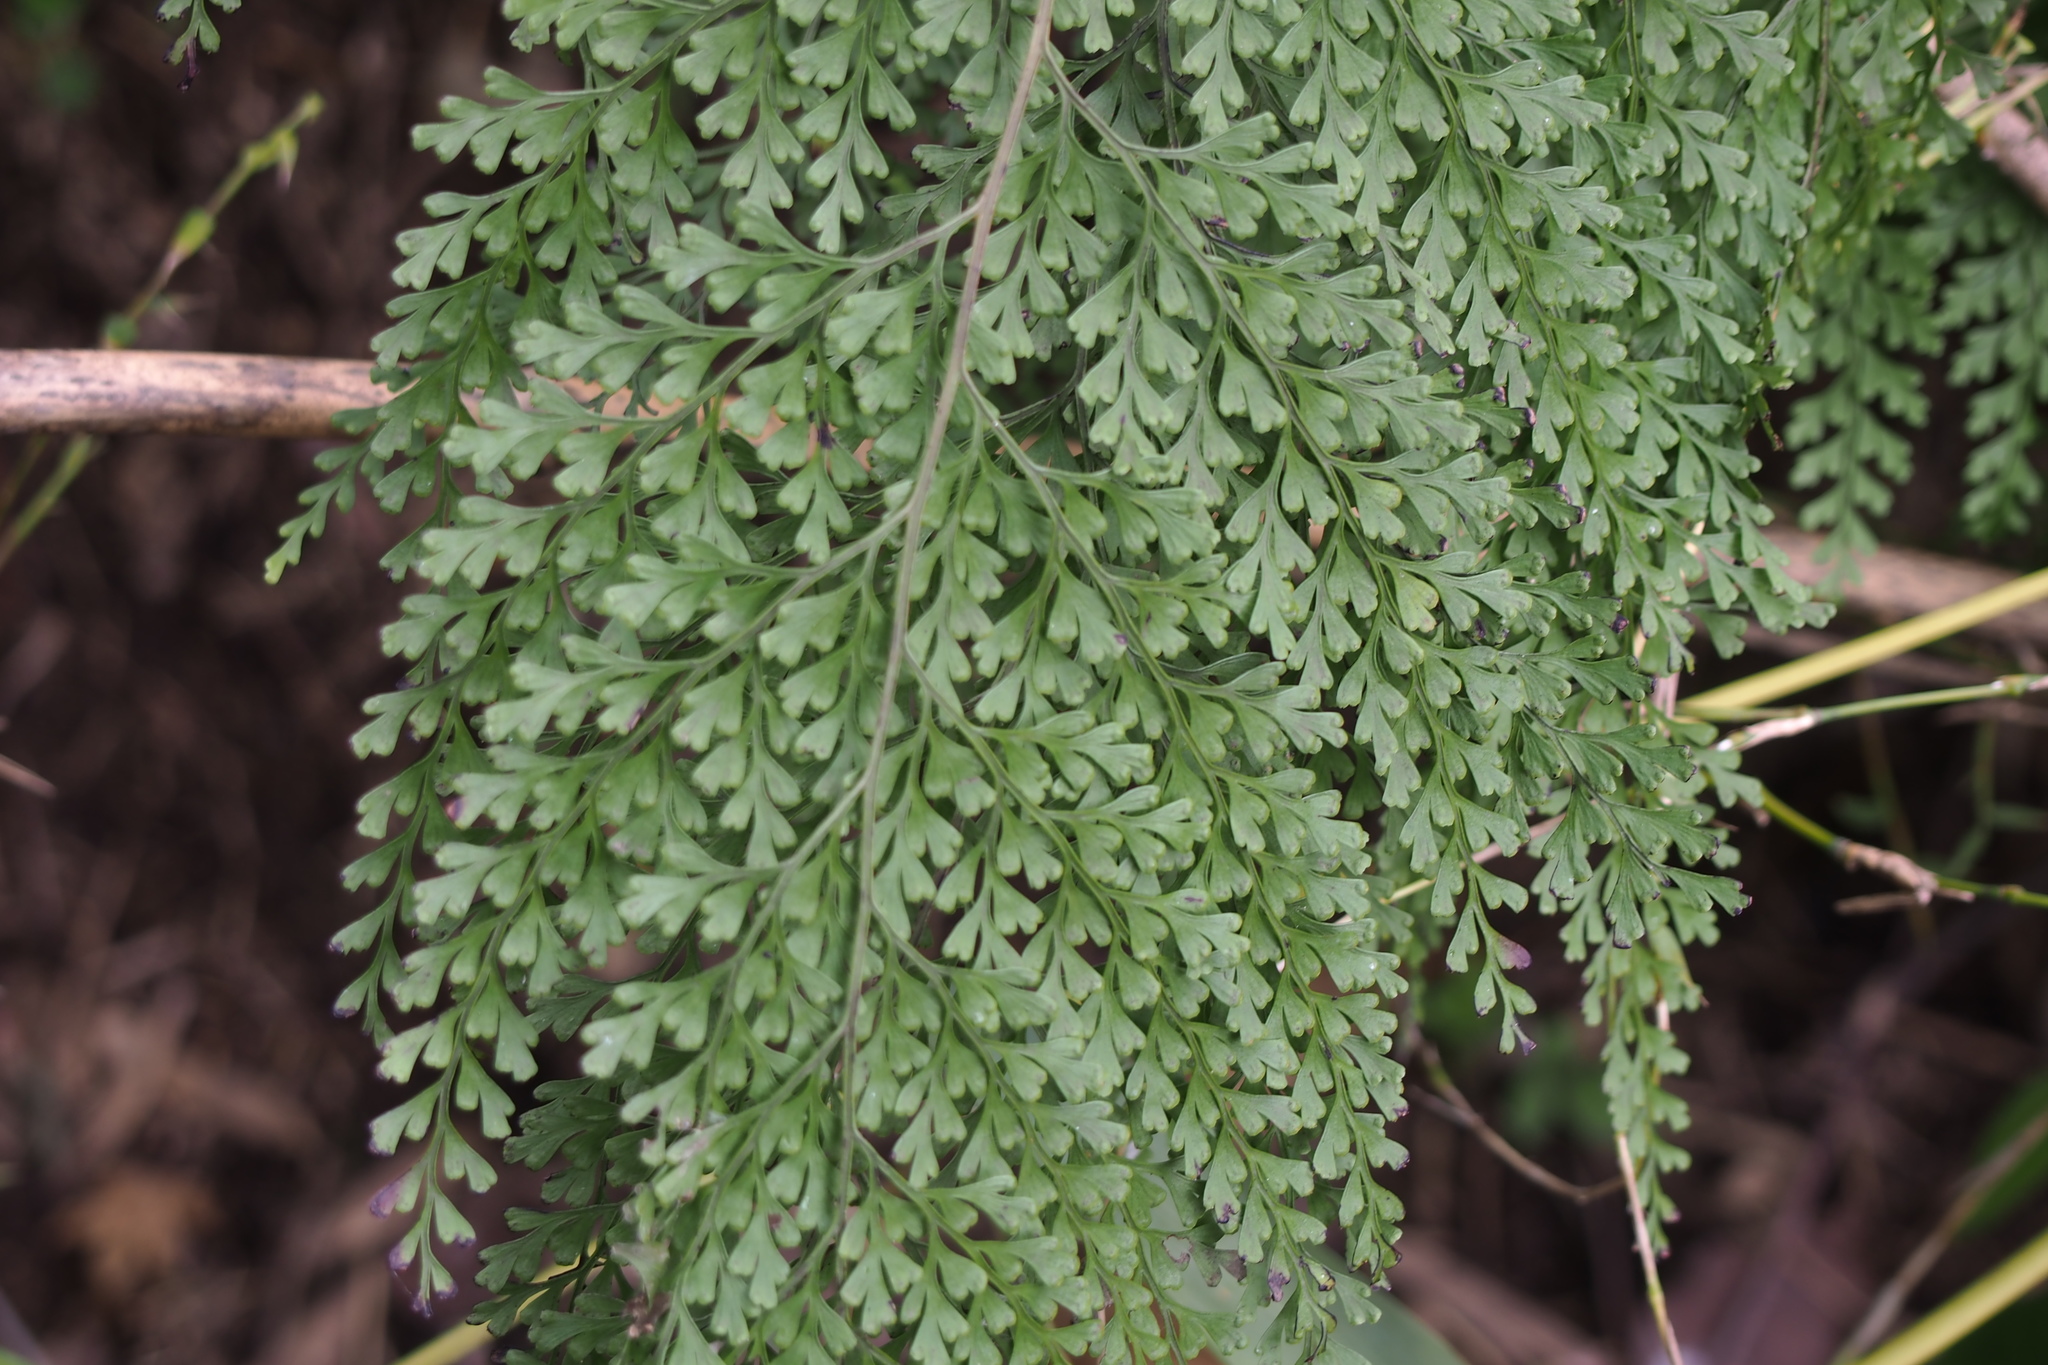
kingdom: Plantae
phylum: Tracheophyta
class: Polypodiopsida
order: Polypodiales
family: Lindsaeaceae
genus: Odontosoria
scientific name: Odontosoria chinensis
